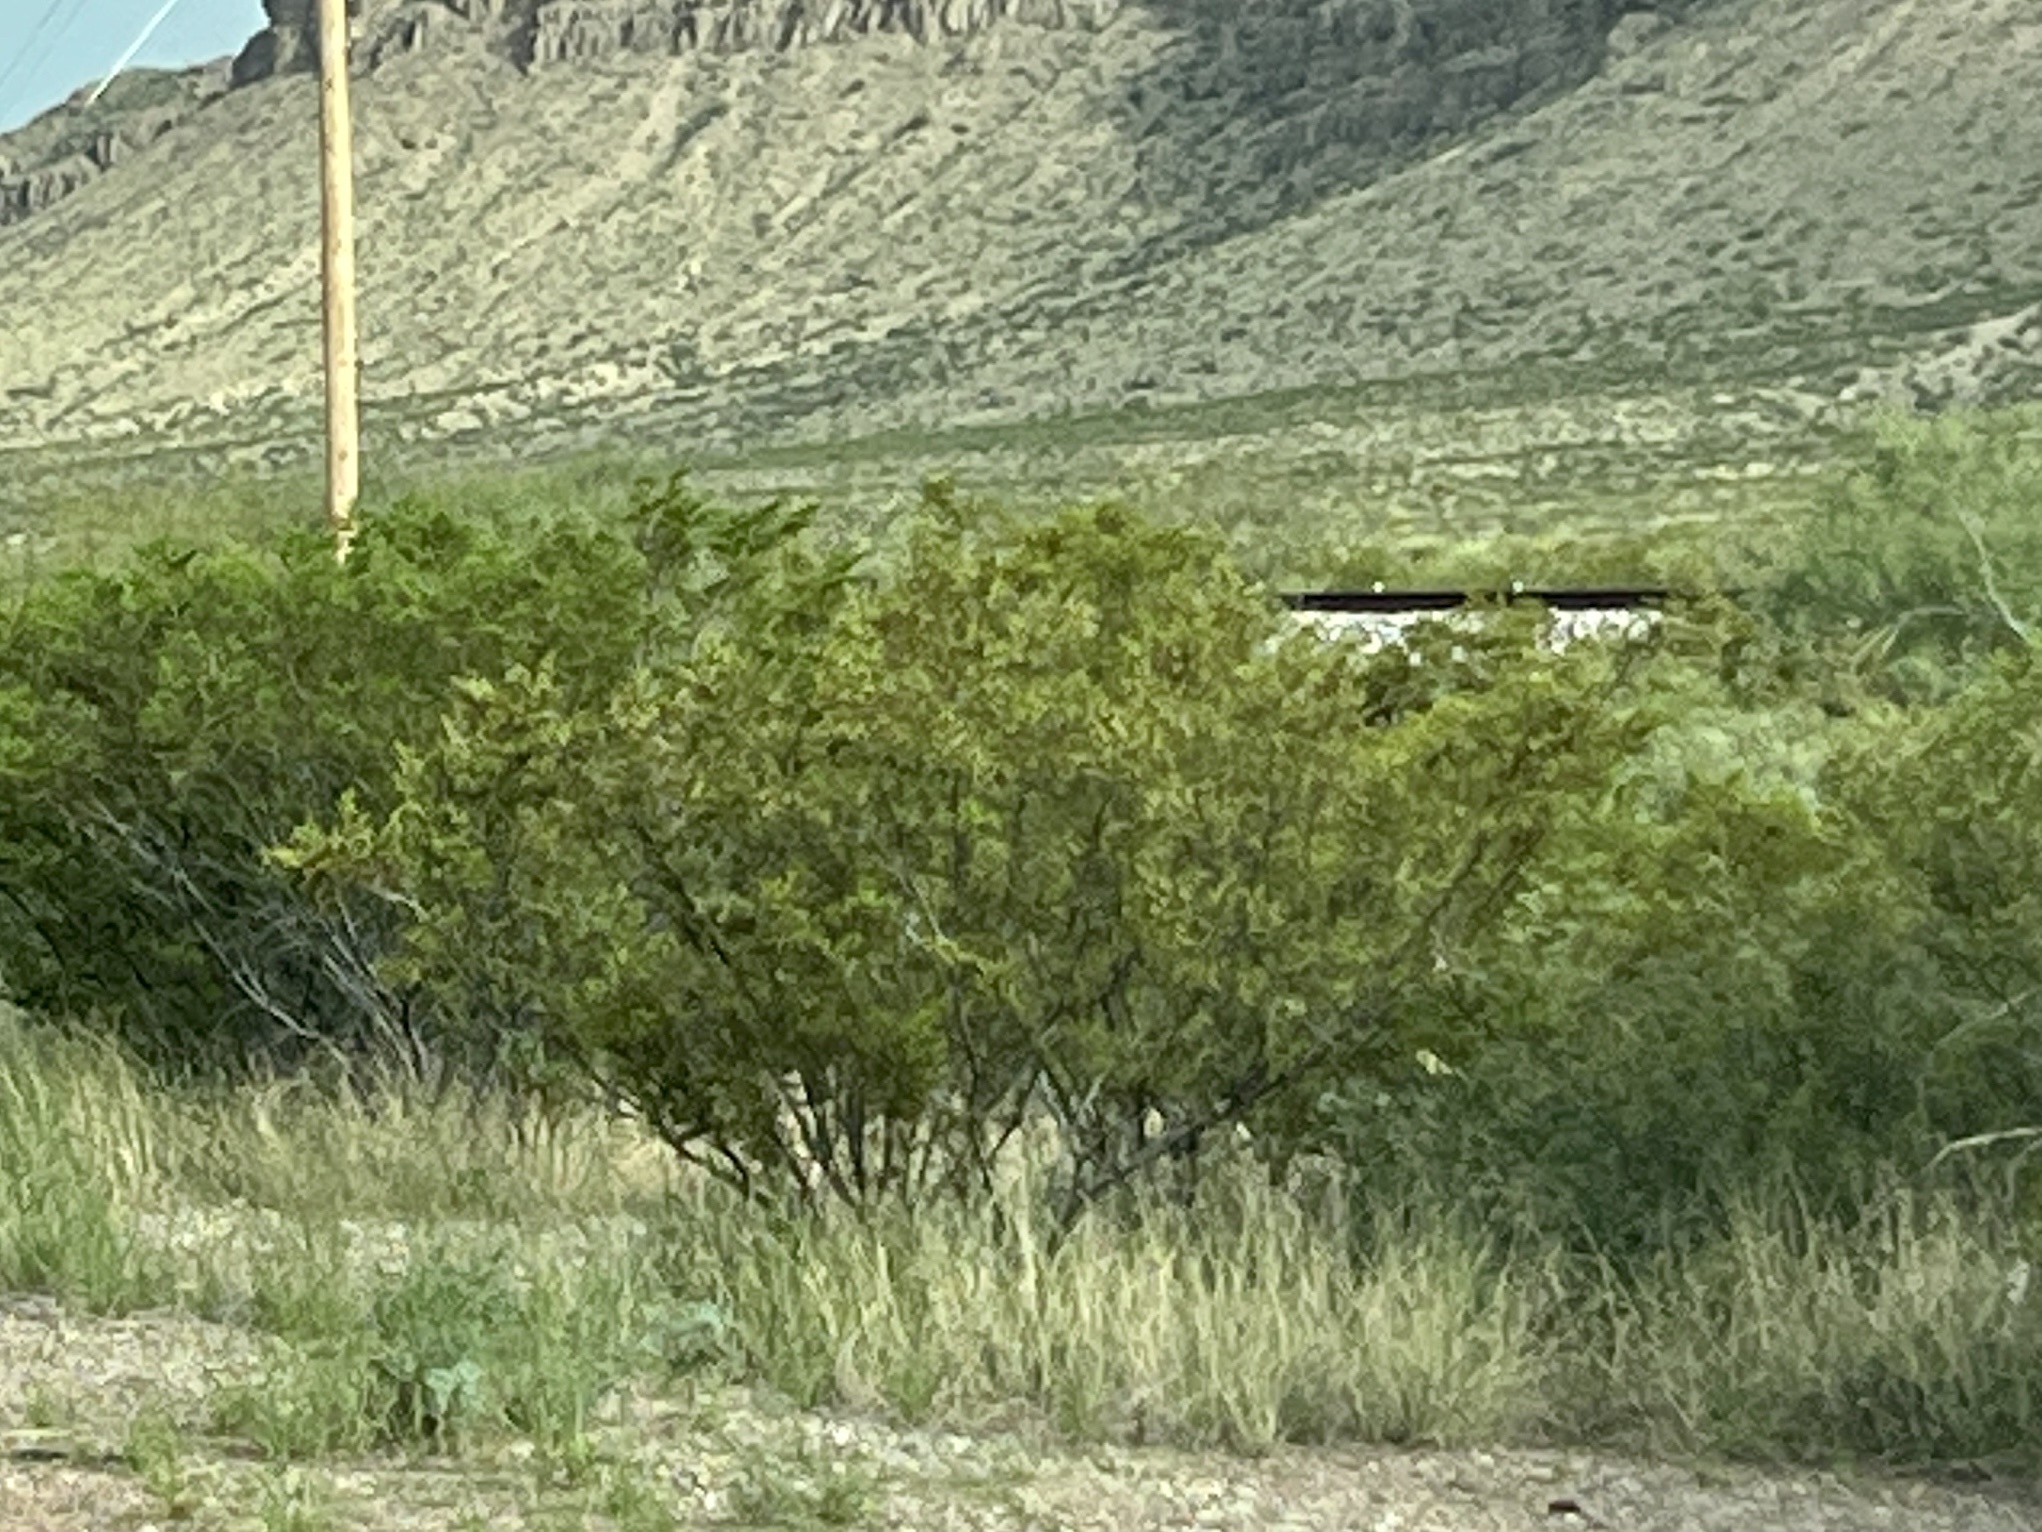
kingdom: Plantae
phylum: Tracheophyta
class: Magnoliopsida
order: Zygophyllales
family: Zygophyllaceae
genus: Larrea
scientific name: Larrea tridentata
